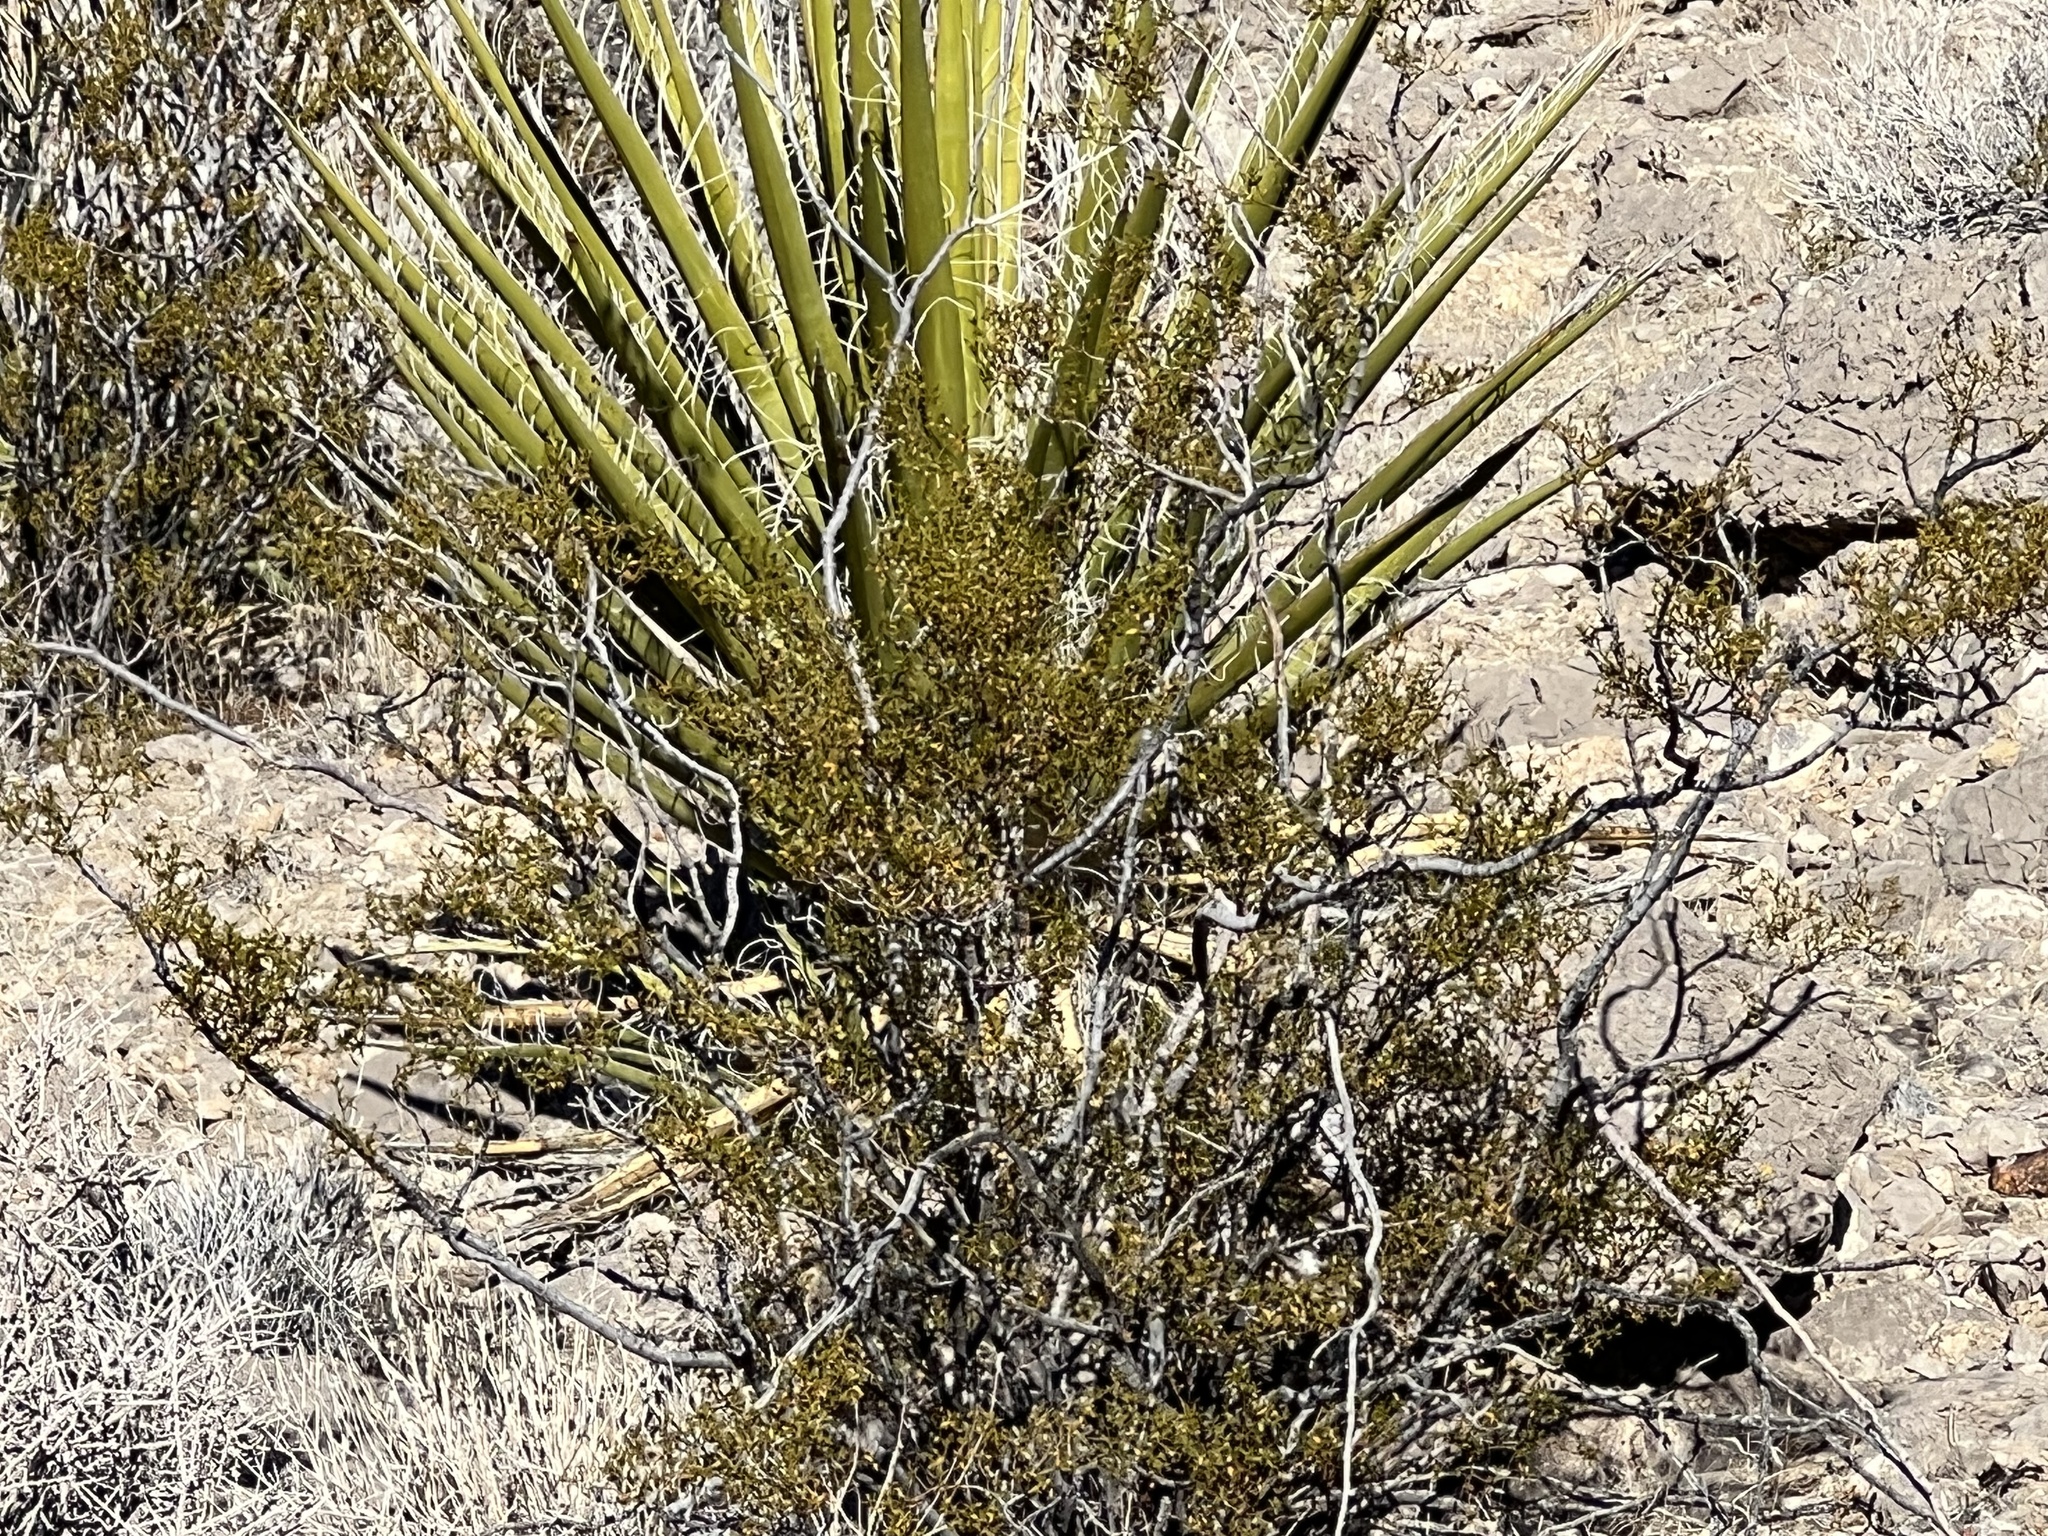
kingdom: Plantae
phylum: Tracheophyta
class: Magnoliopsida
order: Zygophyllales
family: Zygophyllaceae
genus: Larrea
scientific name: Larrea tridentata
